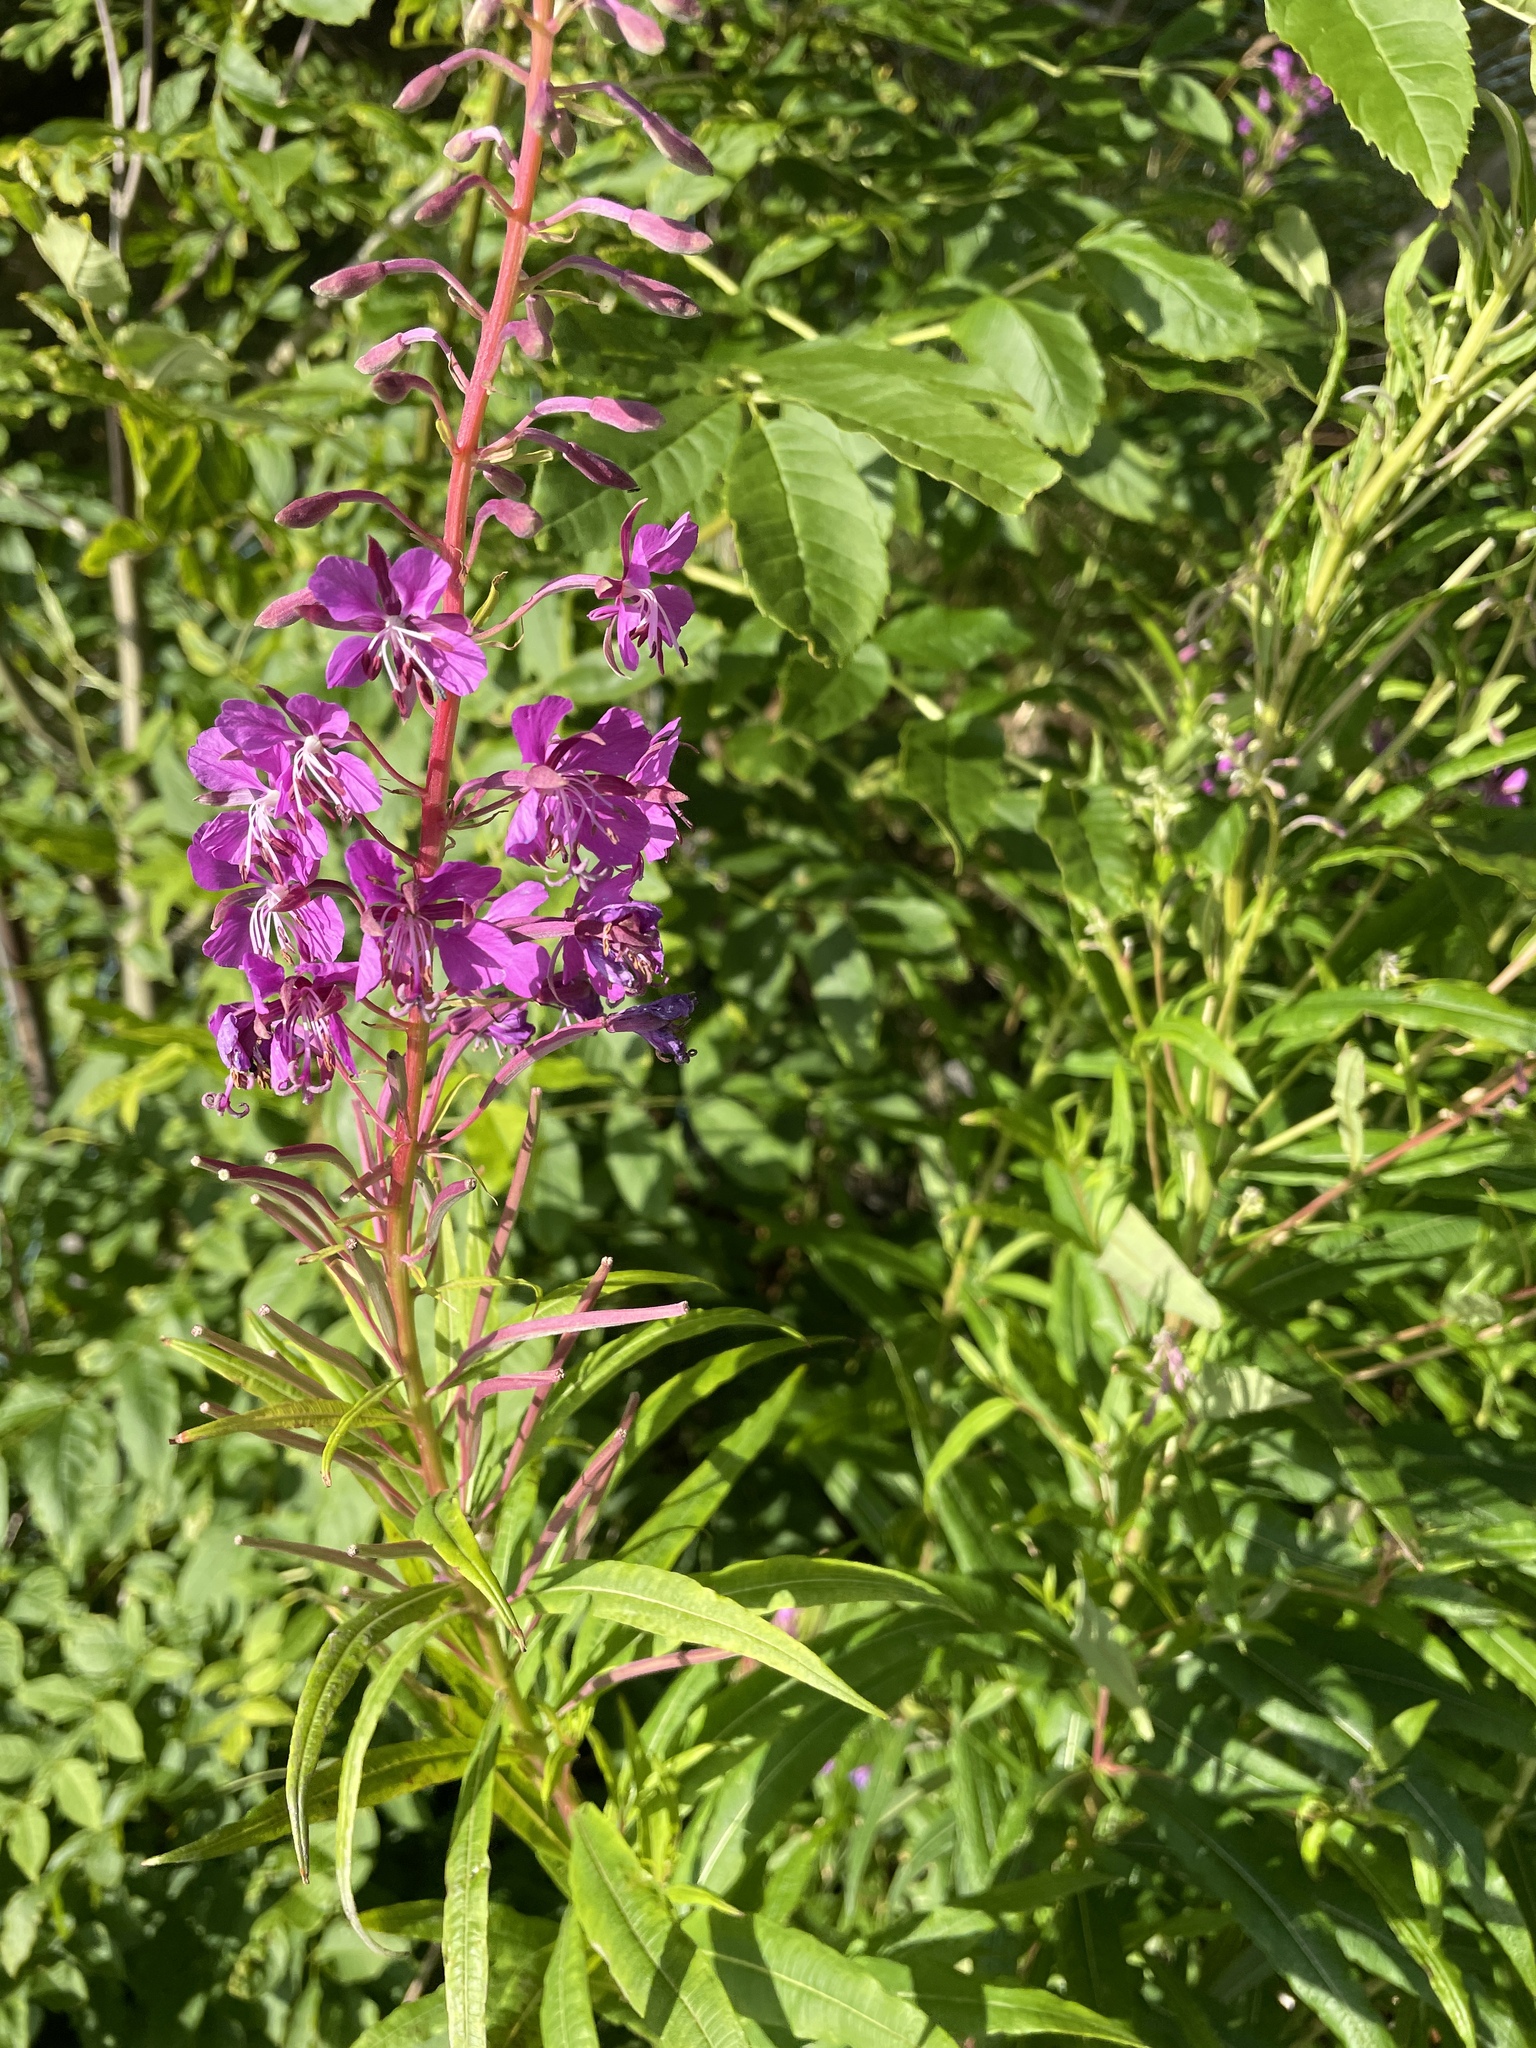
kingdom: Plantae
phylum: Tracheophyta
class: Magnoliopsida
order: Myrtales
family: Onagraceae
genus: Chamaenerion
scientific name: Chamaenerion angustifolium
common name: Fireweed
